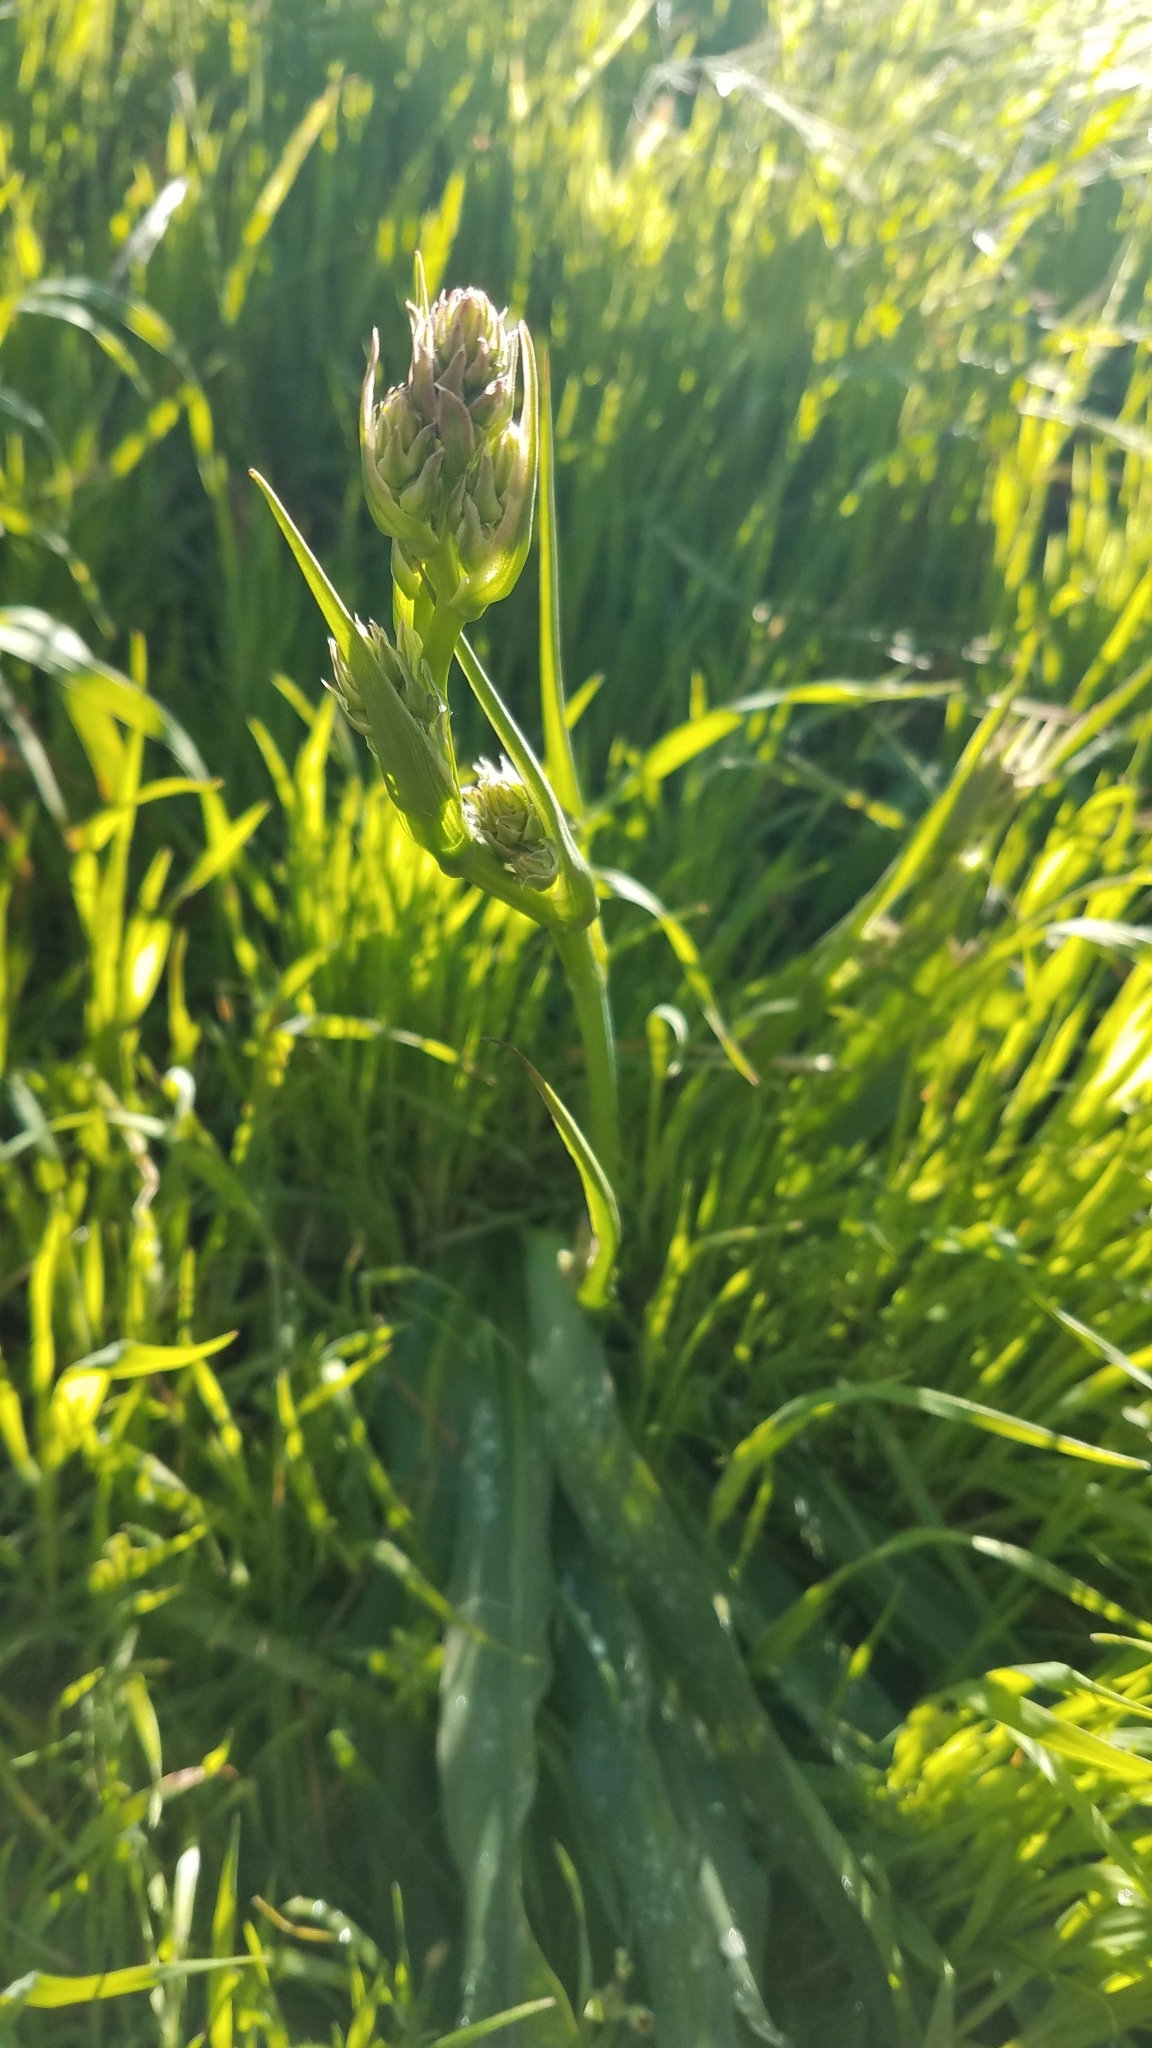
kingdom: Plantae
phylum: Tracheophyta
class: Liliopsida
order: Asparagales
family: Asparagaceae
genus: Chlorogalum
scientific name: Chlorogalum pomeridianum
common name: Amole
